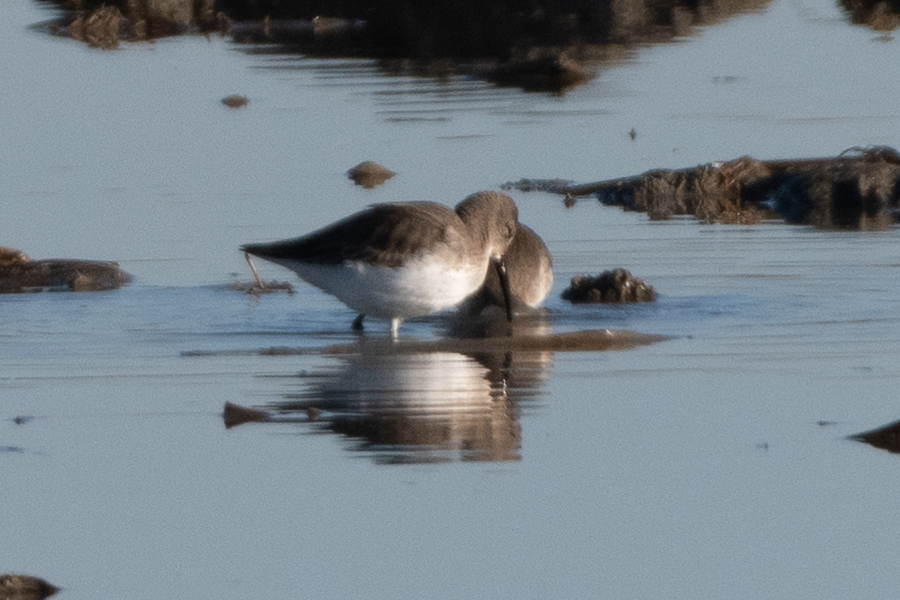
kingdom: Animalia
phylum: Chordata
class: Aves
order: Charadriiformes
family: Scolopacidae
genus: Calidris
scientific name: Calidris alpina
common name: Dunlin
